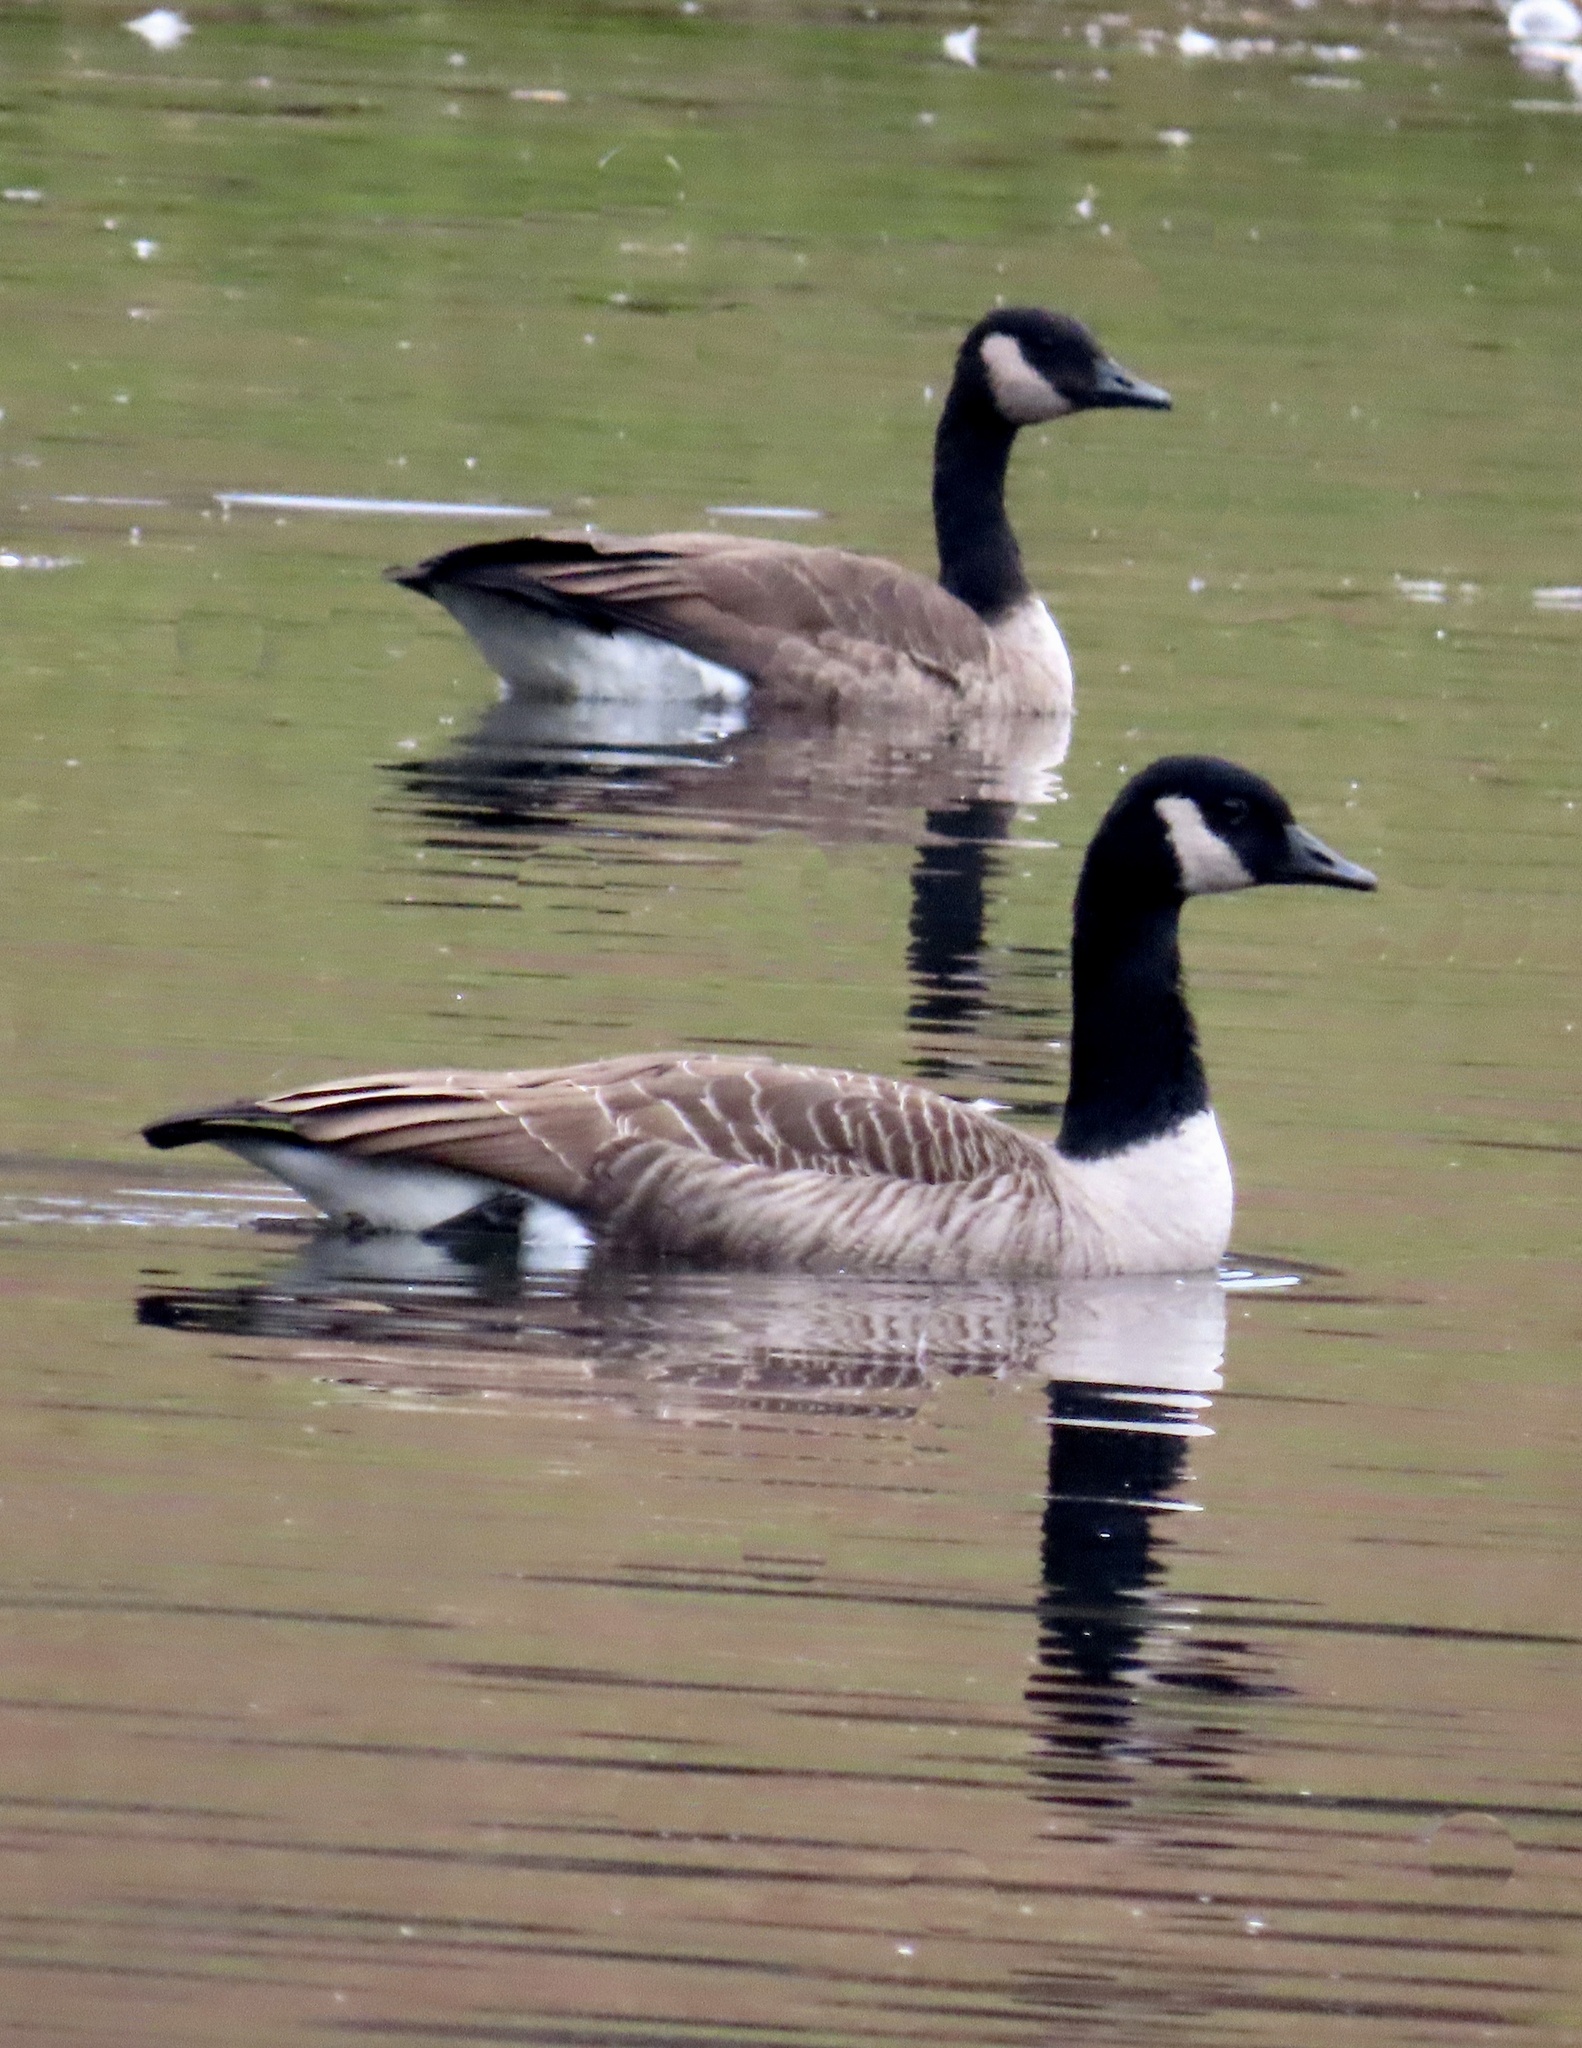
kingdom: Animalia
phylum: Chordata
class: Aves
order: Anseriformes
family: Anatidae
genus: Branta
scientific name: Branta canadensis
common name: Canada goose
